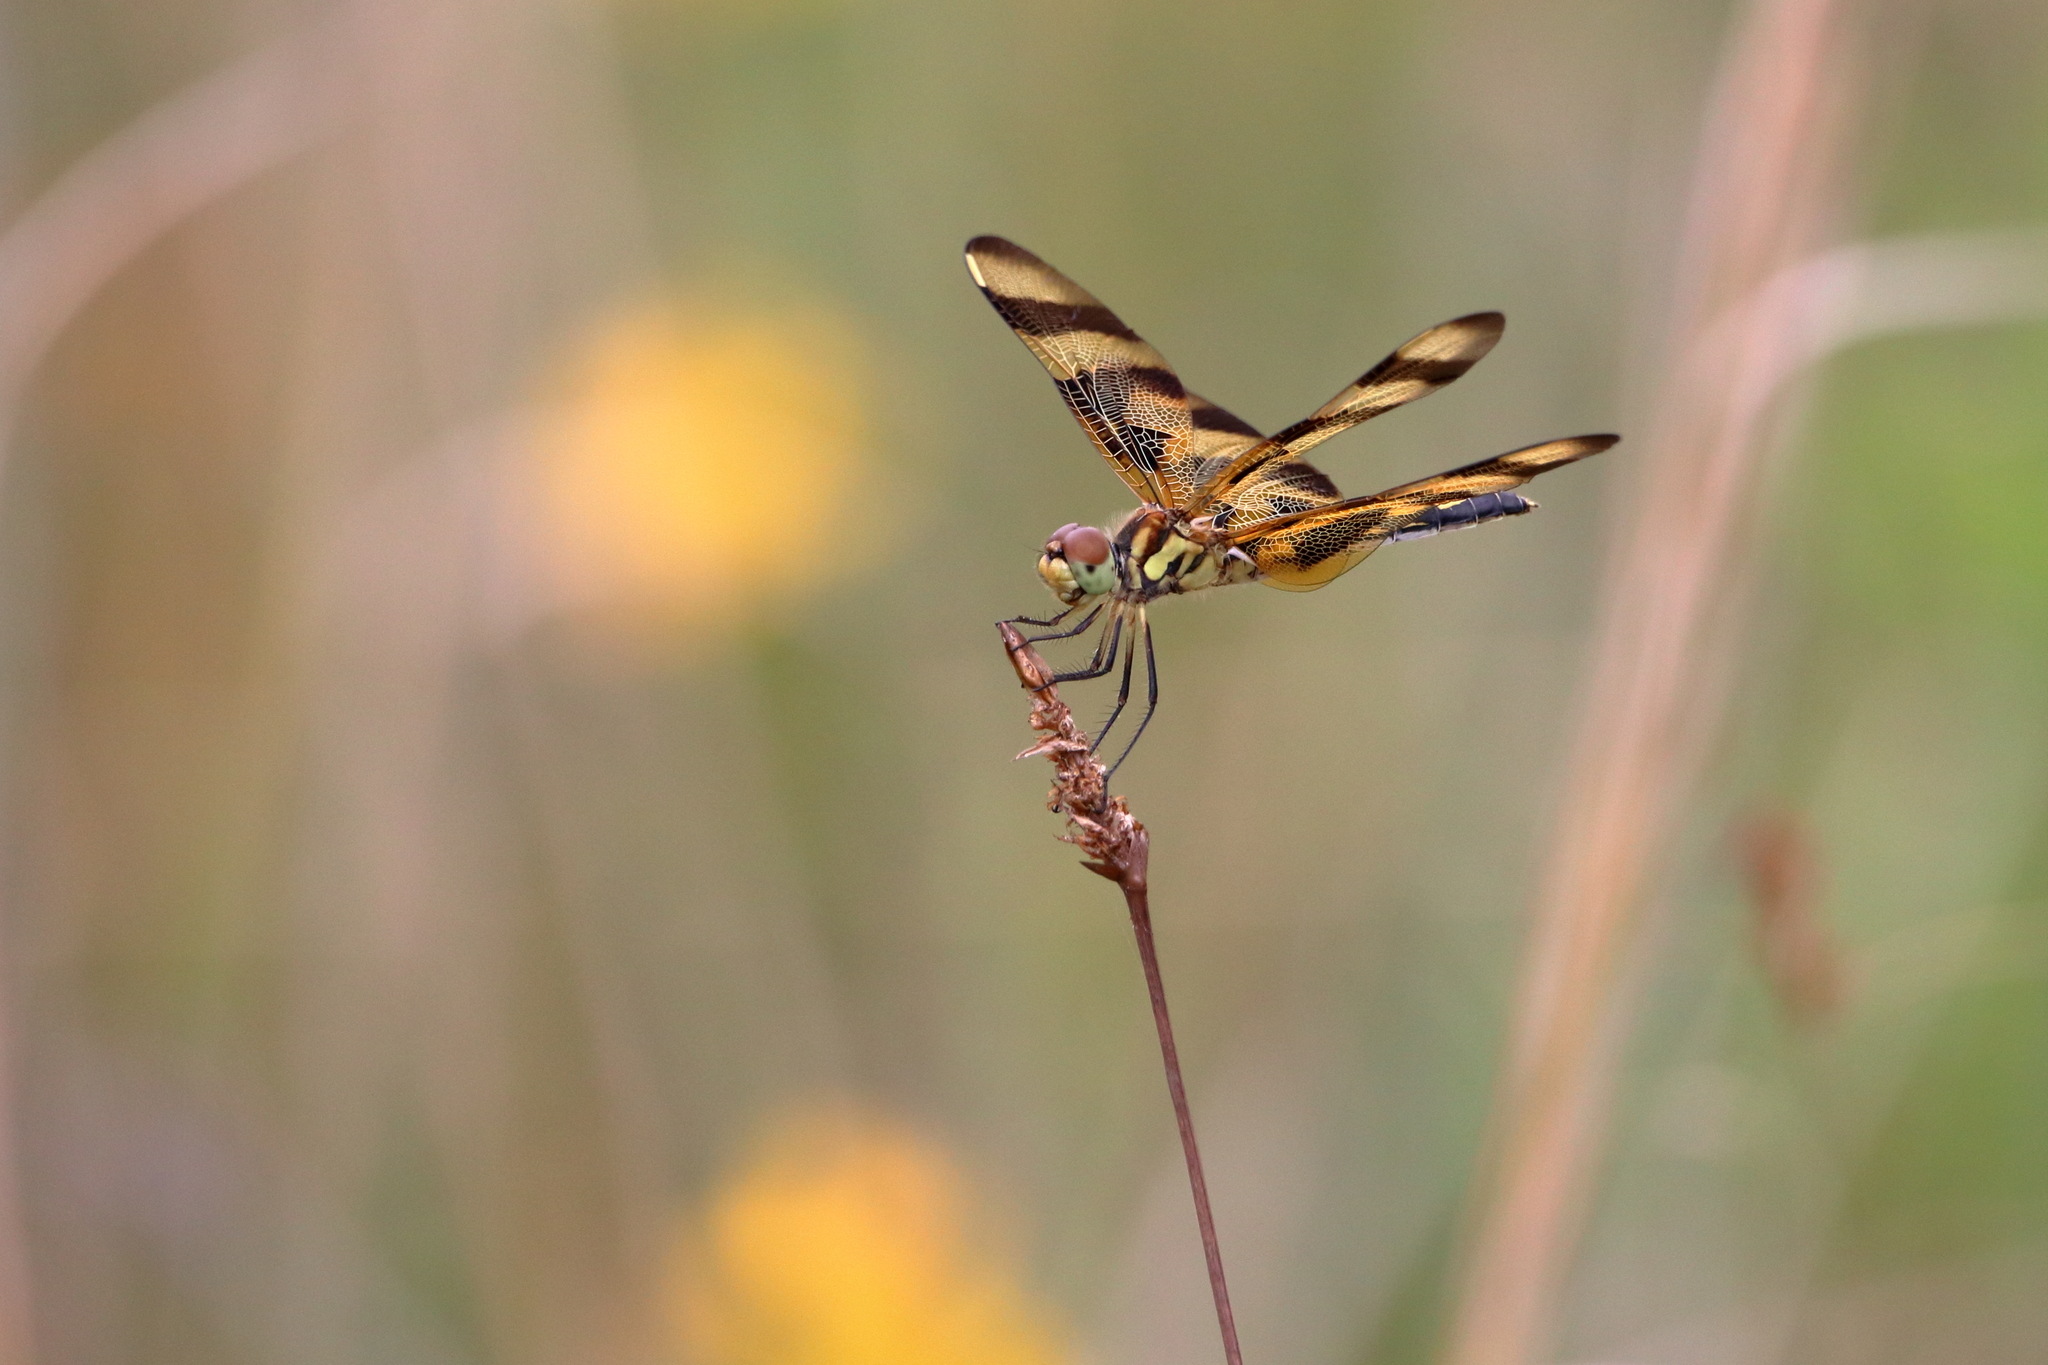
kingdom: Animalia
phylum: Arthropoda
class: Insecta
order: Odonata
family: Libellulidae
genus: Celithemis
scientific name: Celithemis eponina
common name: Halloween pennant
